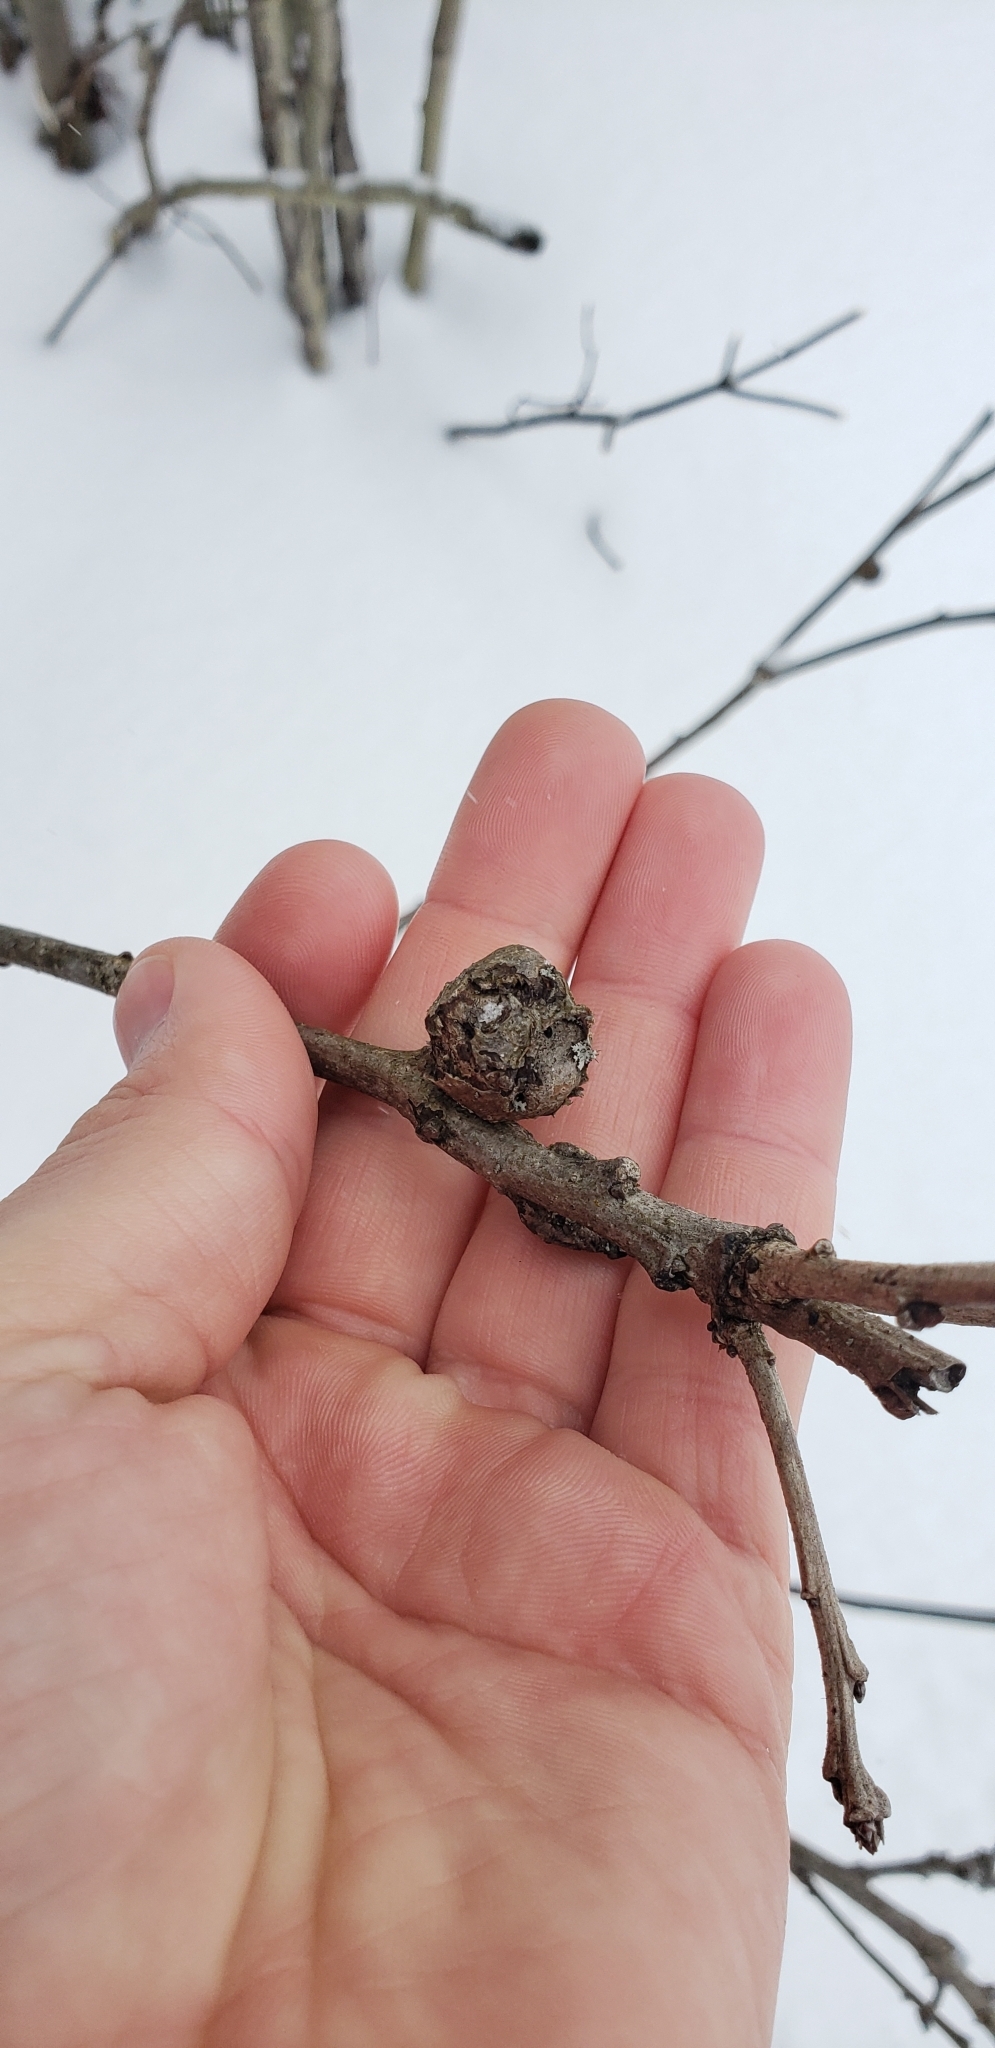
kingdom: Animalia
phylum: Arthropoda
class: Insecta
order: Hymenoptera
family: Cynipidae
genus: Disholcaspis
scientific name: Disholcaspis
